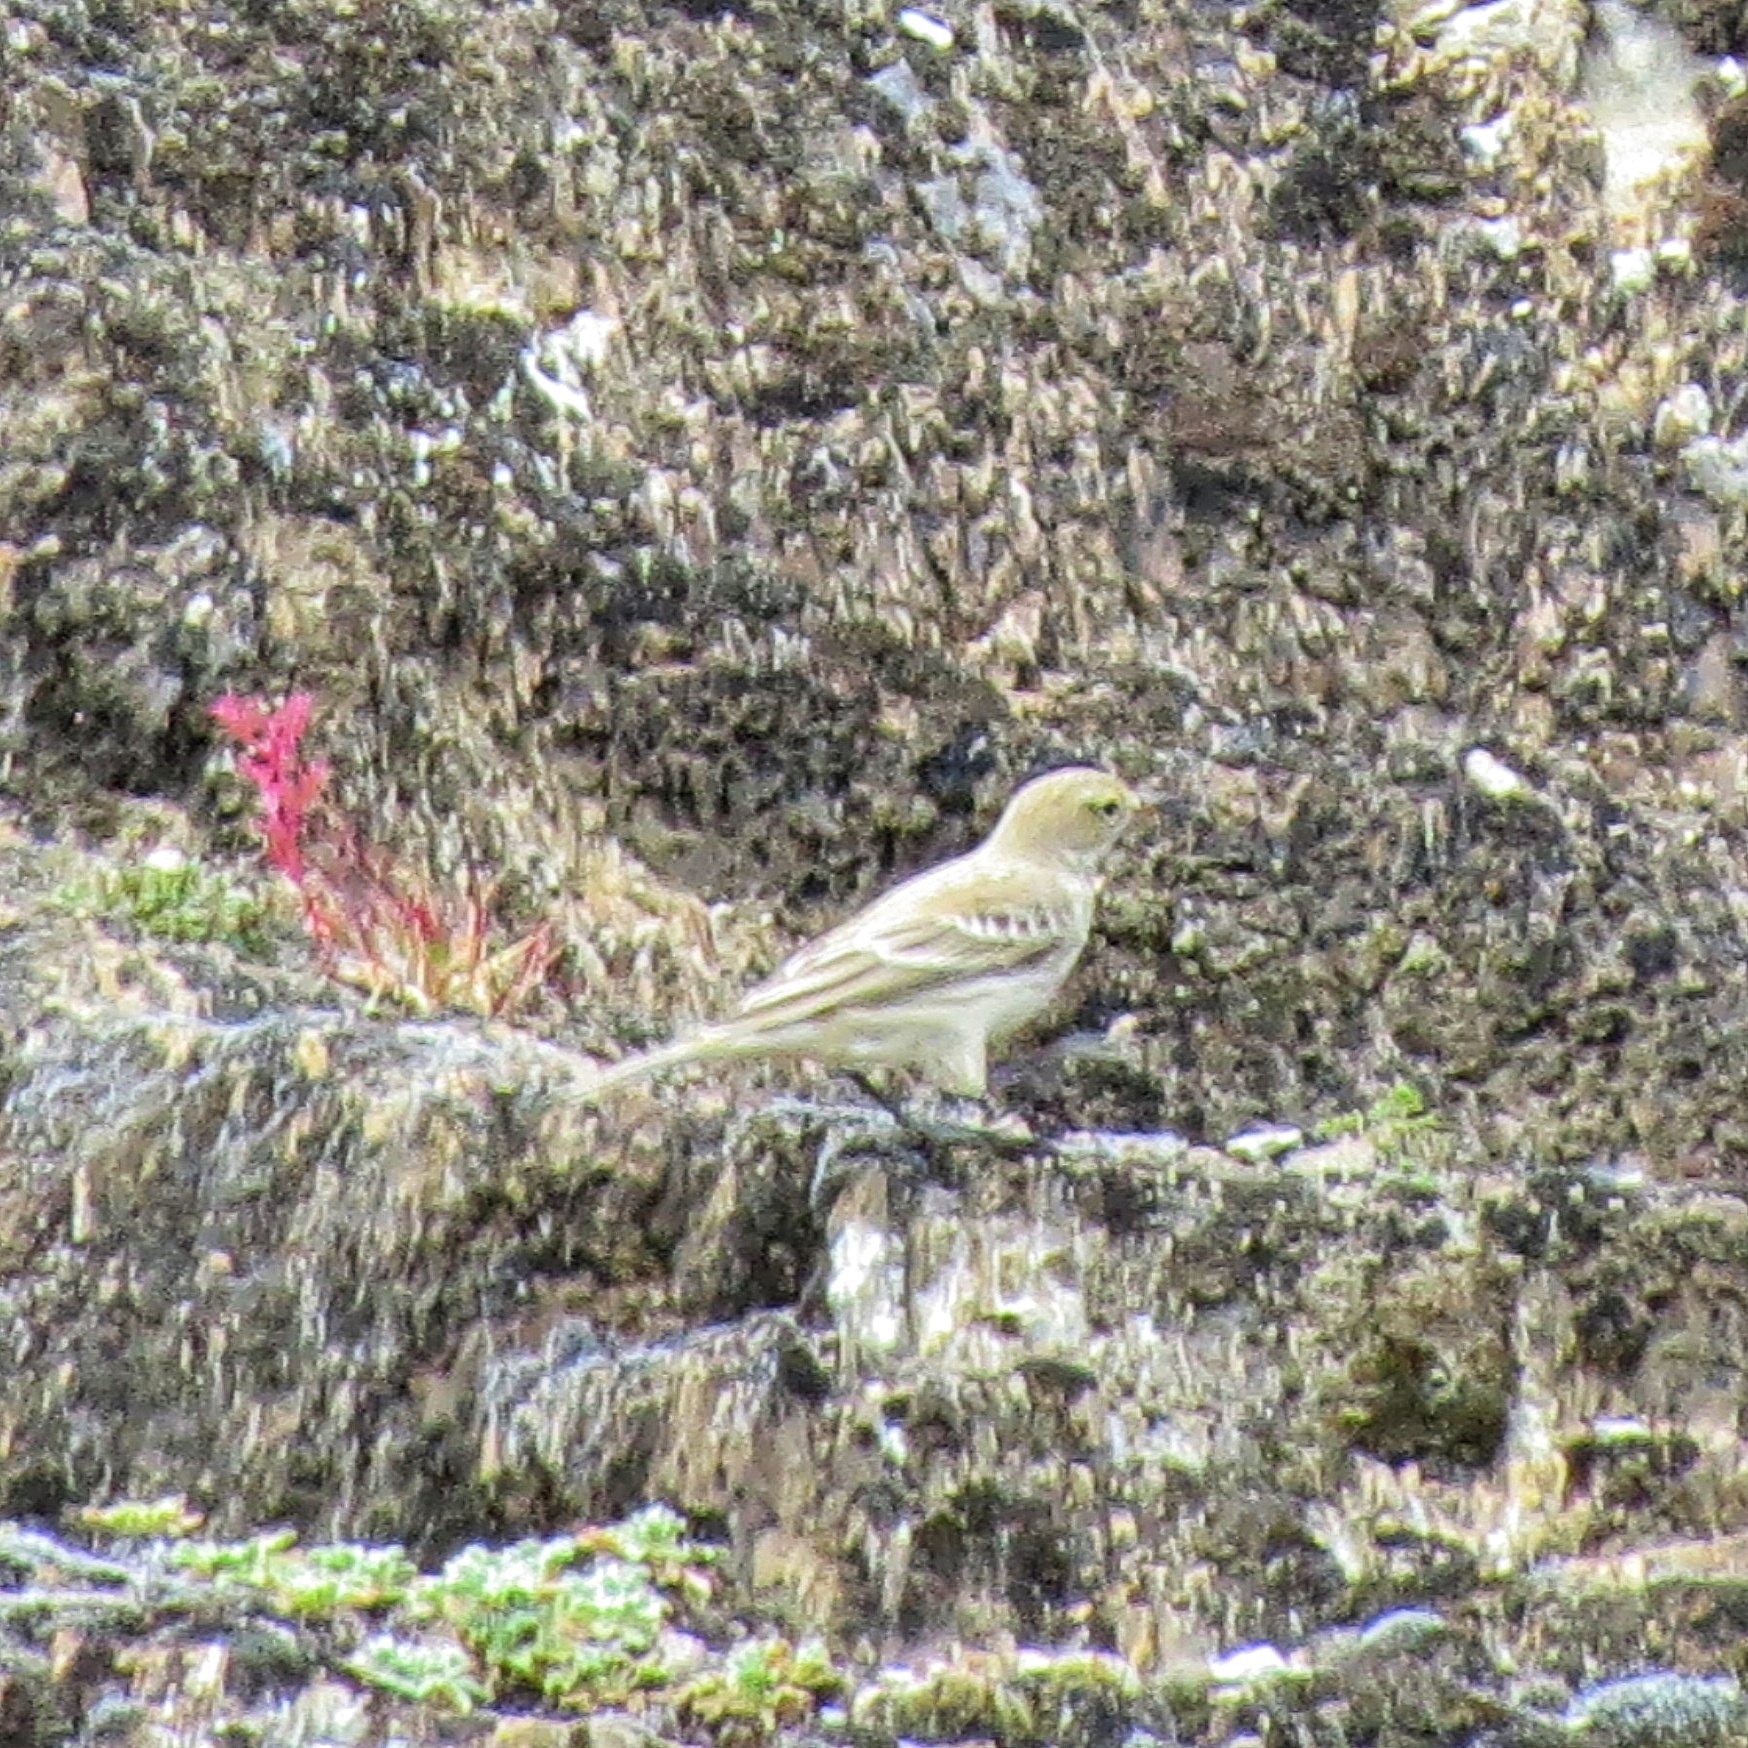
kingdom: Animalia
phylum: Chordata
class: Aves
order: Passeriformes
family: Motacillidae
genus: Anthus
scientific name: Anthus spinoletta
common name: Water pipit
